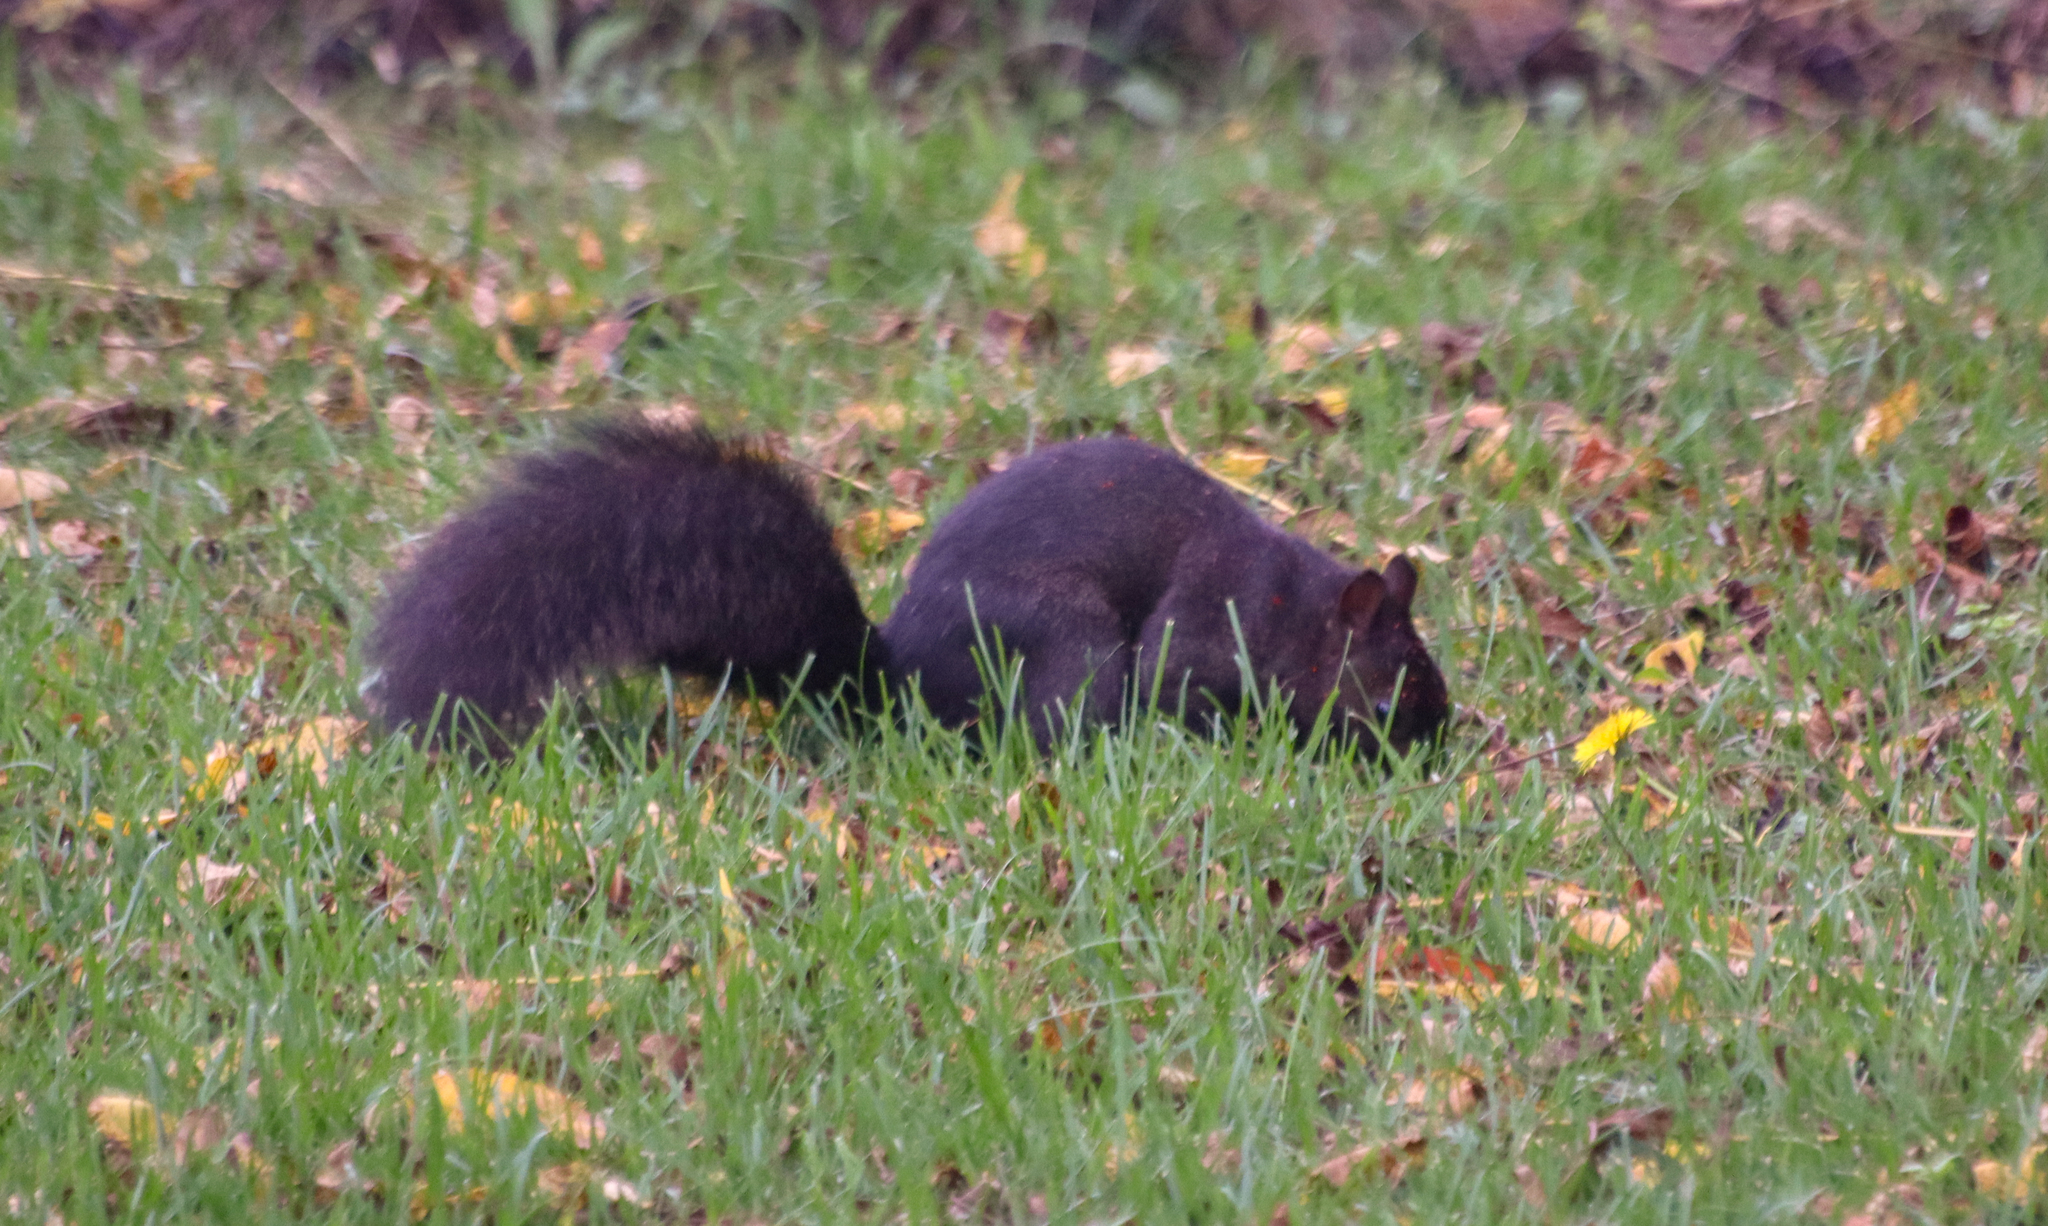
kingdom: Animalia
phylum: Chordata
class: Mammalia
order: Rodentia
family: Sciuridae
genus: Sciurus
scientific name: Sciurus carolinensis
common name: Eastern gray squirrel
